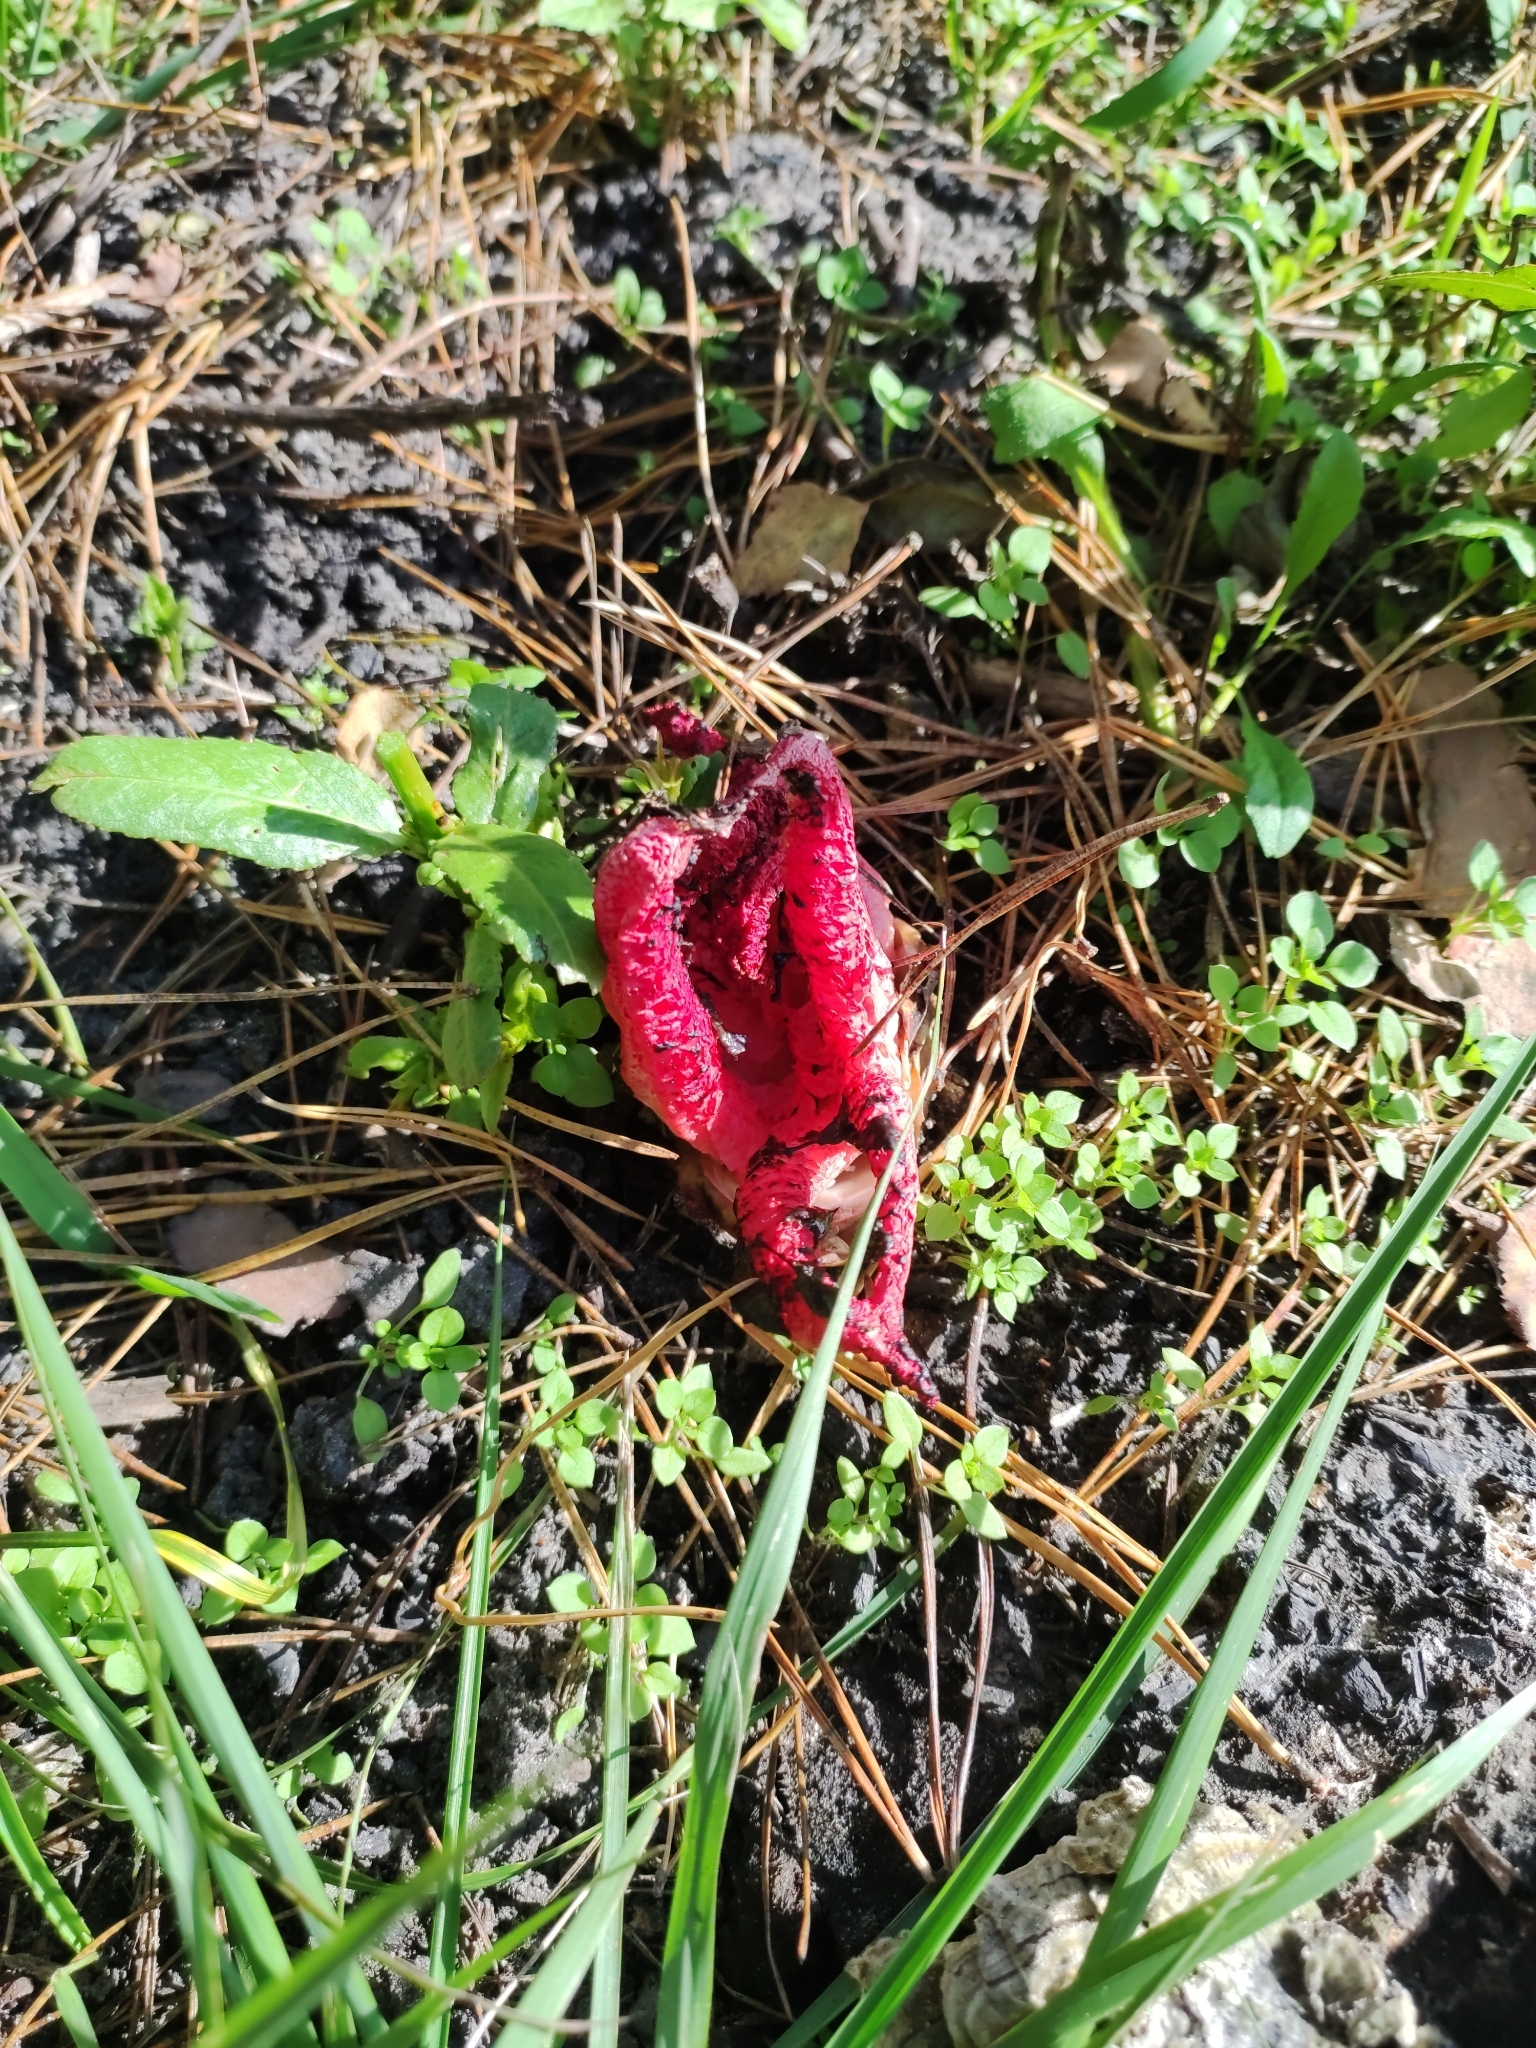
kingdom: Fungi
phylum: Basidiomycota
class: Agaricomycetes
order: Phallales
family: Phallaceae
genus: Clathrus
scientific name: Clathrus archeri
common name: Devil's fingers
